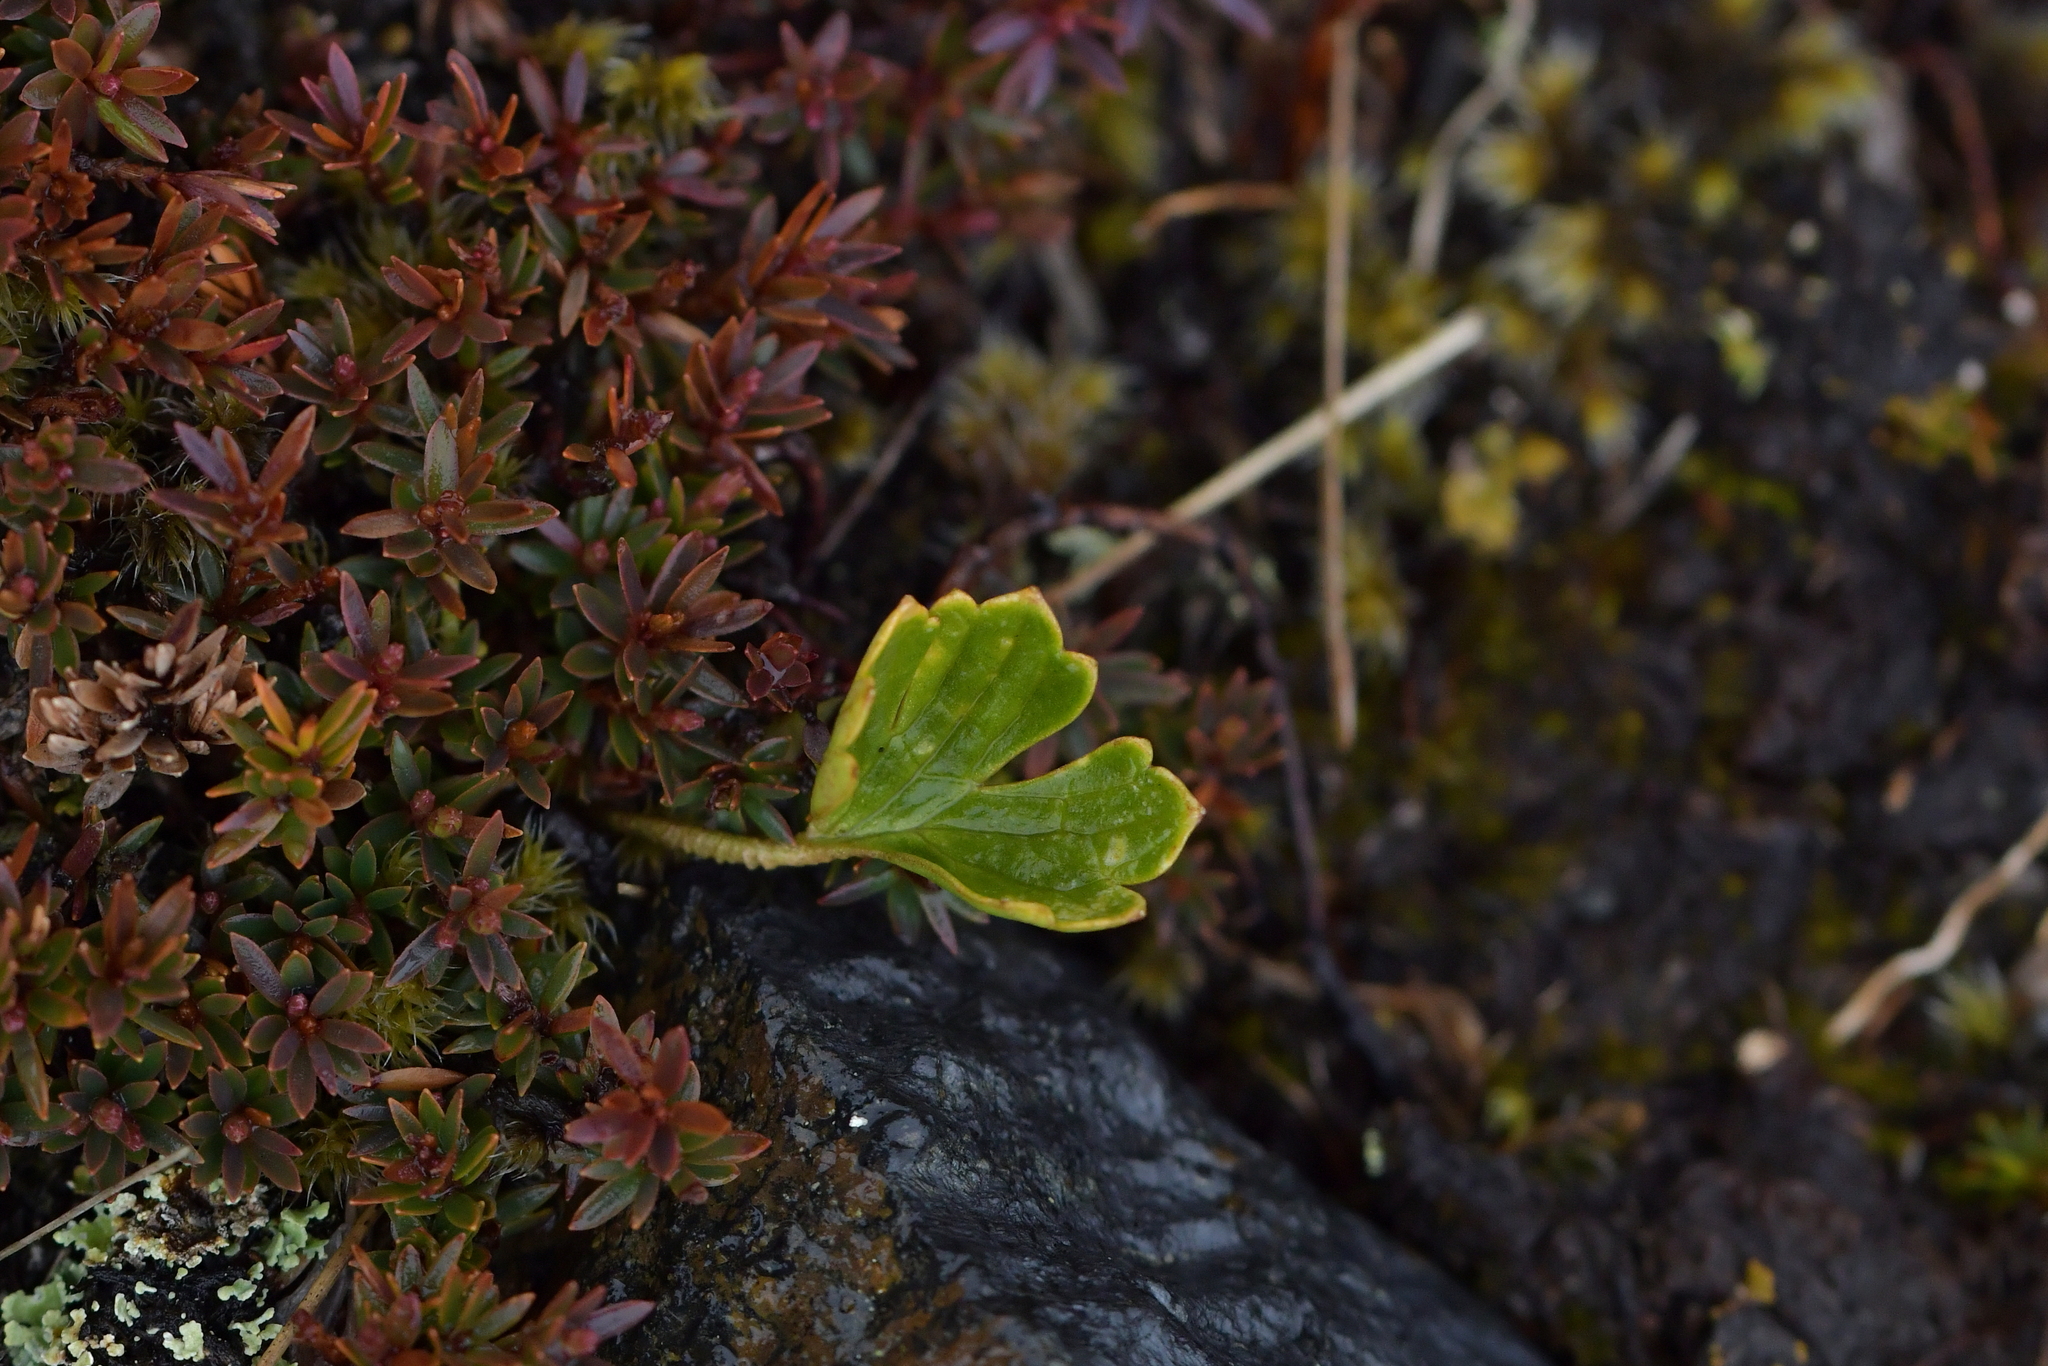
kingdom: Plantae
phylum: Tracheophyta
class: Magnoliopsida
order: Ranunculales
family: Ranunculaceae
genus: Ranunculus
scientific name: Ranunculus verticillatus
